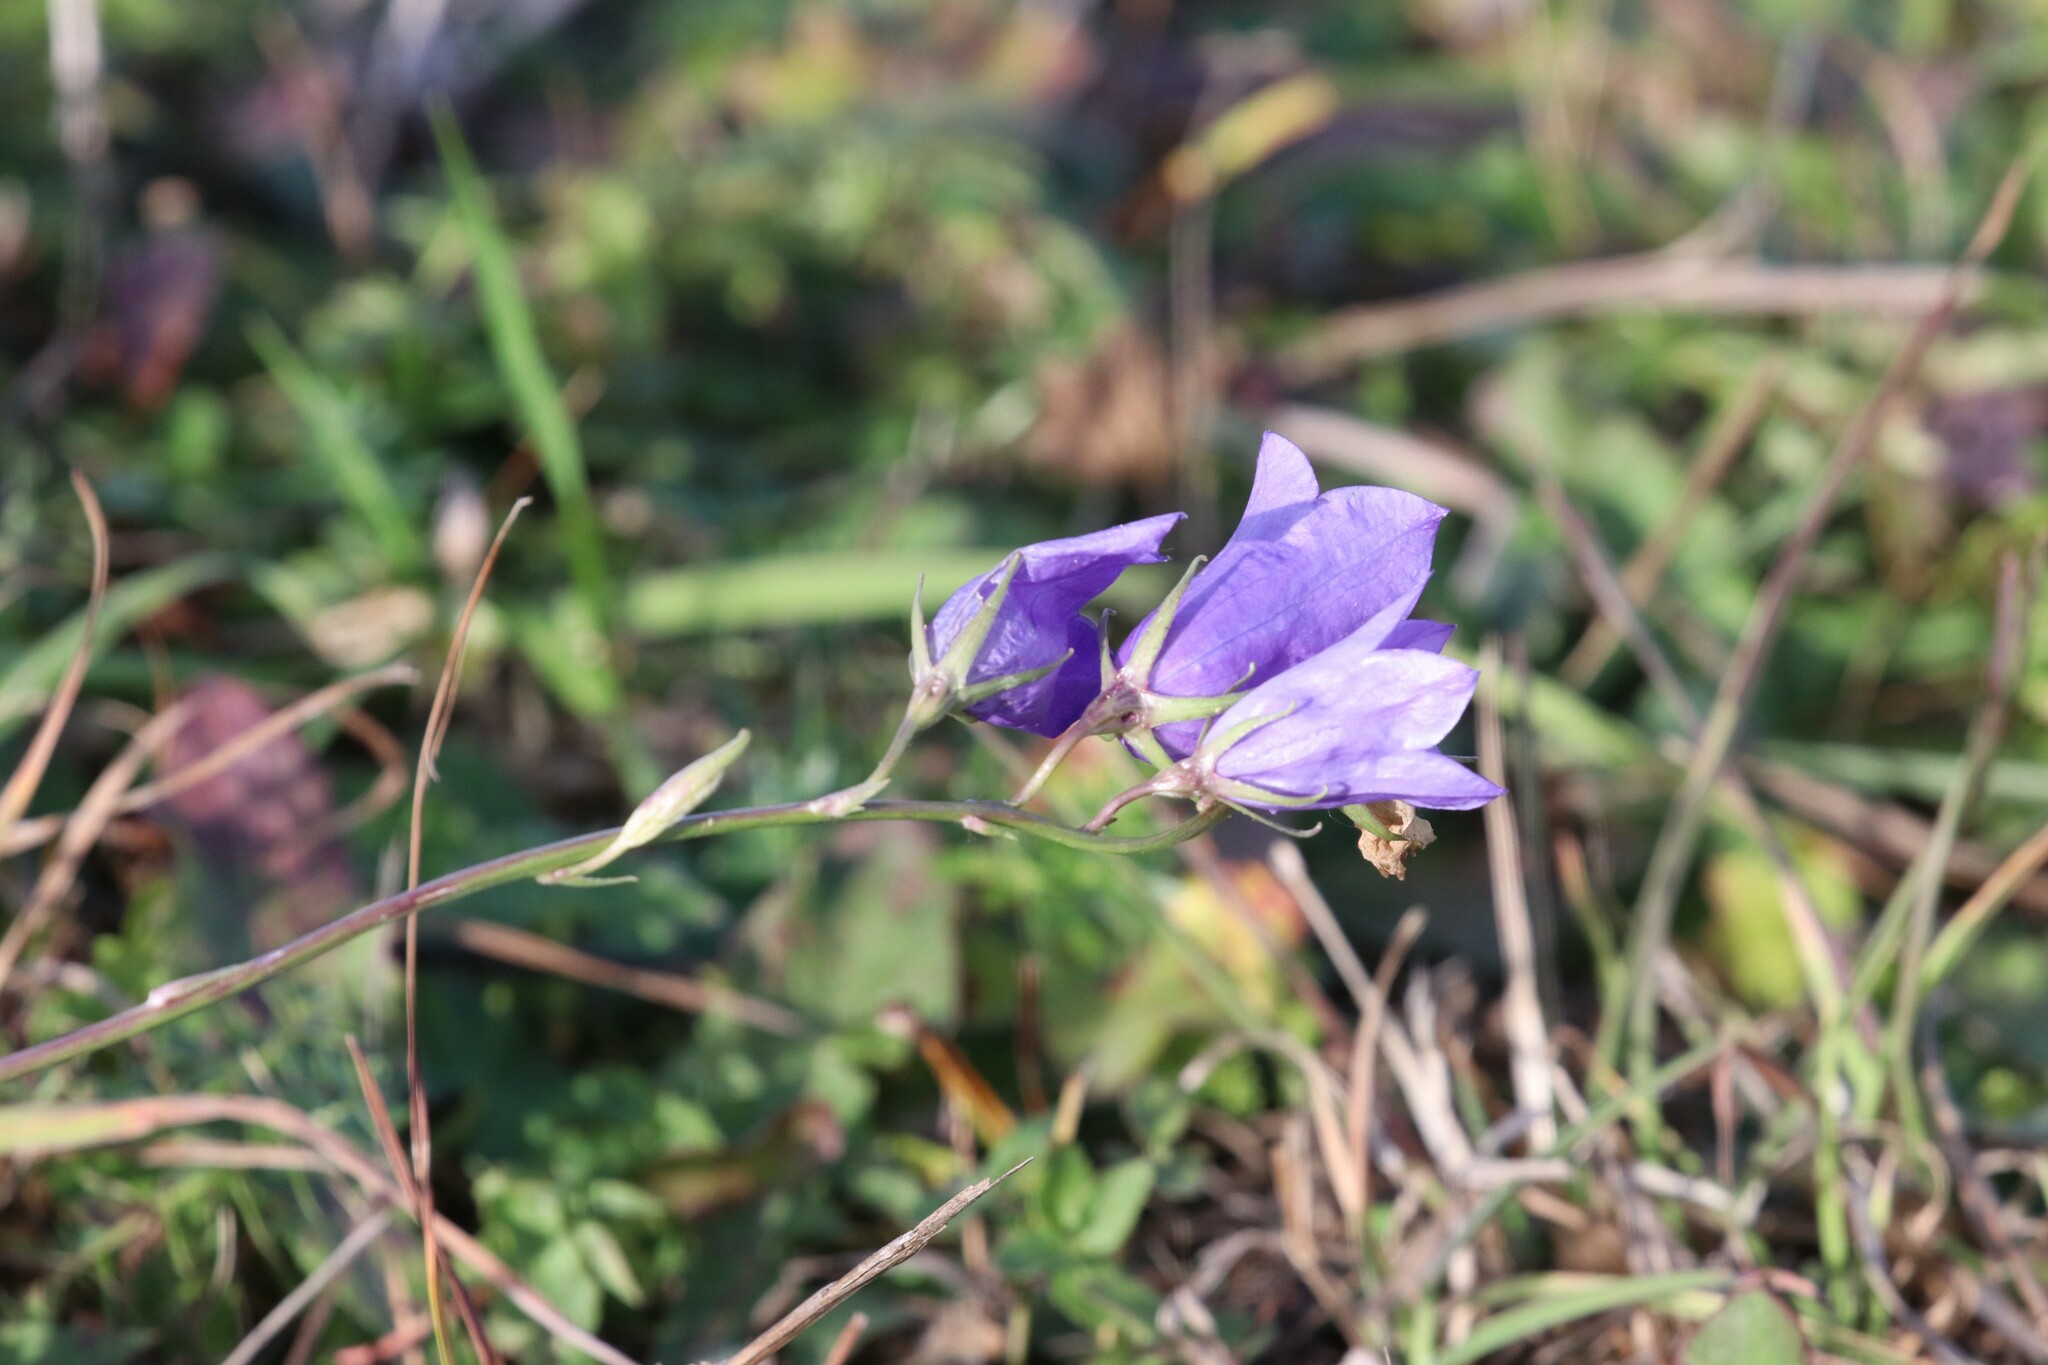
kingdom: Plantae
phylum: Tracheophyta
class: Magnoliopsida
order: Asterales
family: Campanulaceae
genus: Campanula
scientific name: Campanula persicifolia
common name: Peach-leaved bellflower
